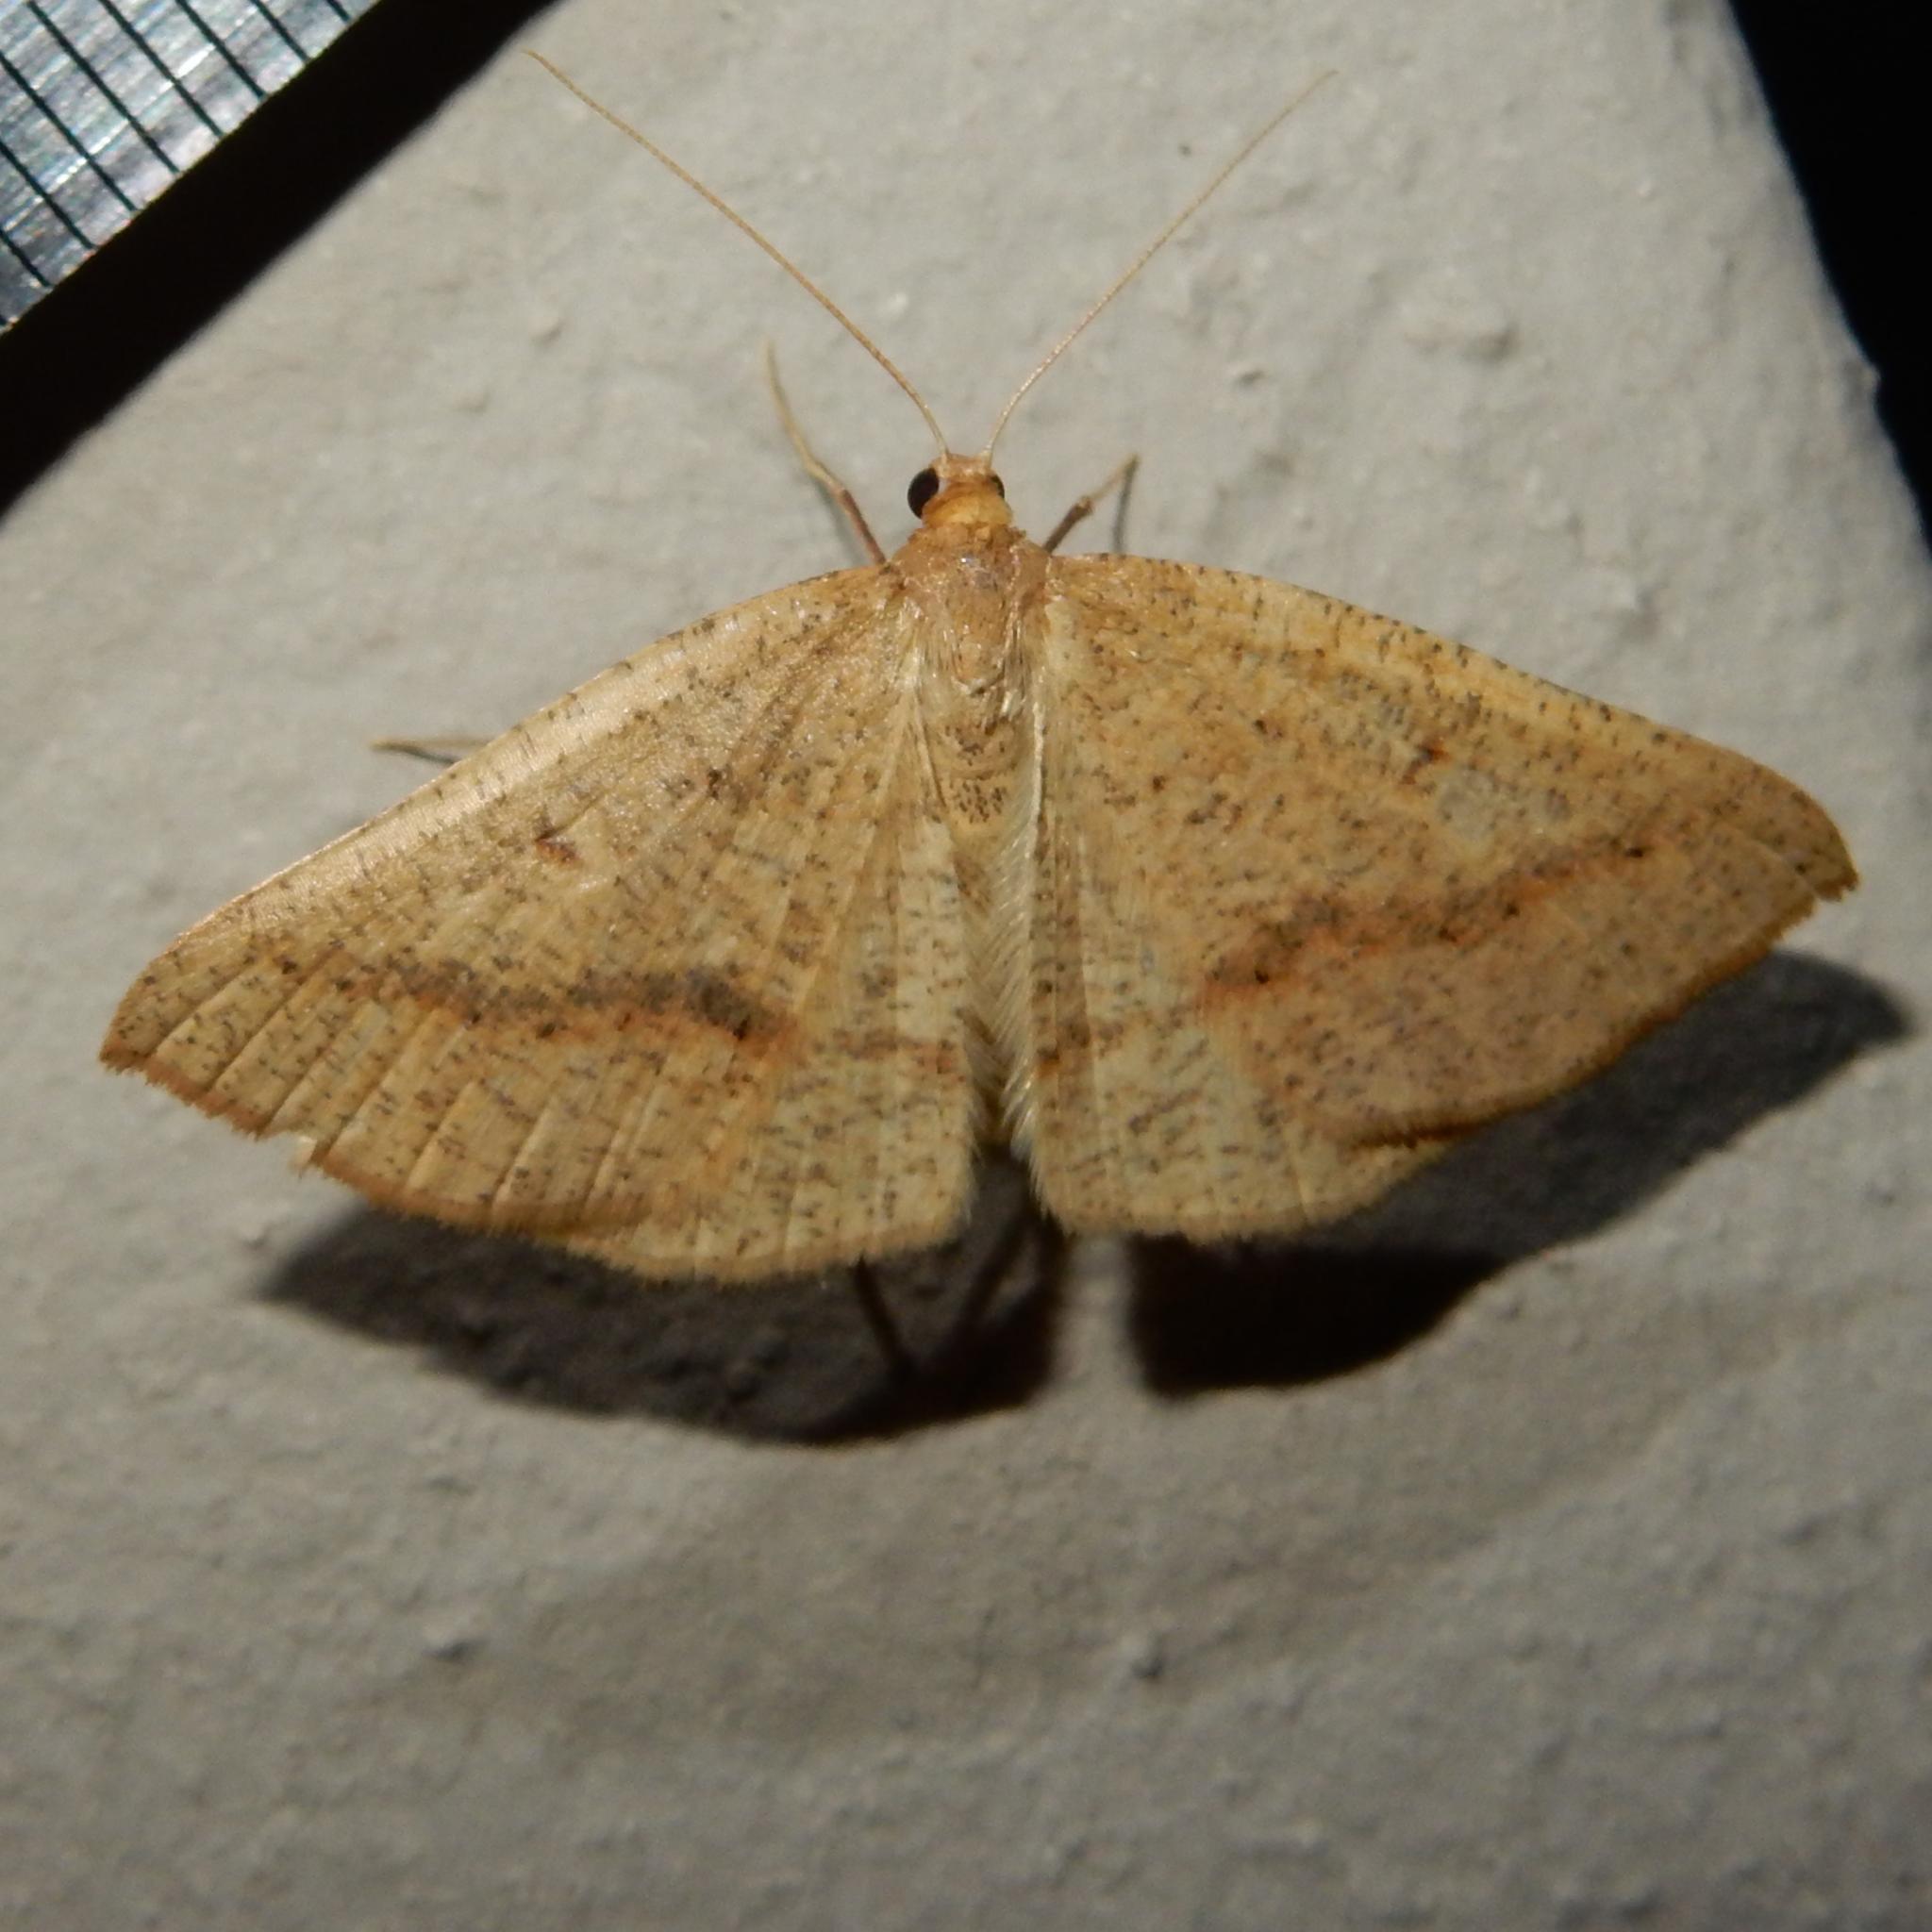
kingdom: Animalia
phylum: Arthropoda
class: Insecta
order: Lepidoptera
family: Geometridae
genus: Palaeaspilates
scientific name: Palaeaspilates inoffensa
